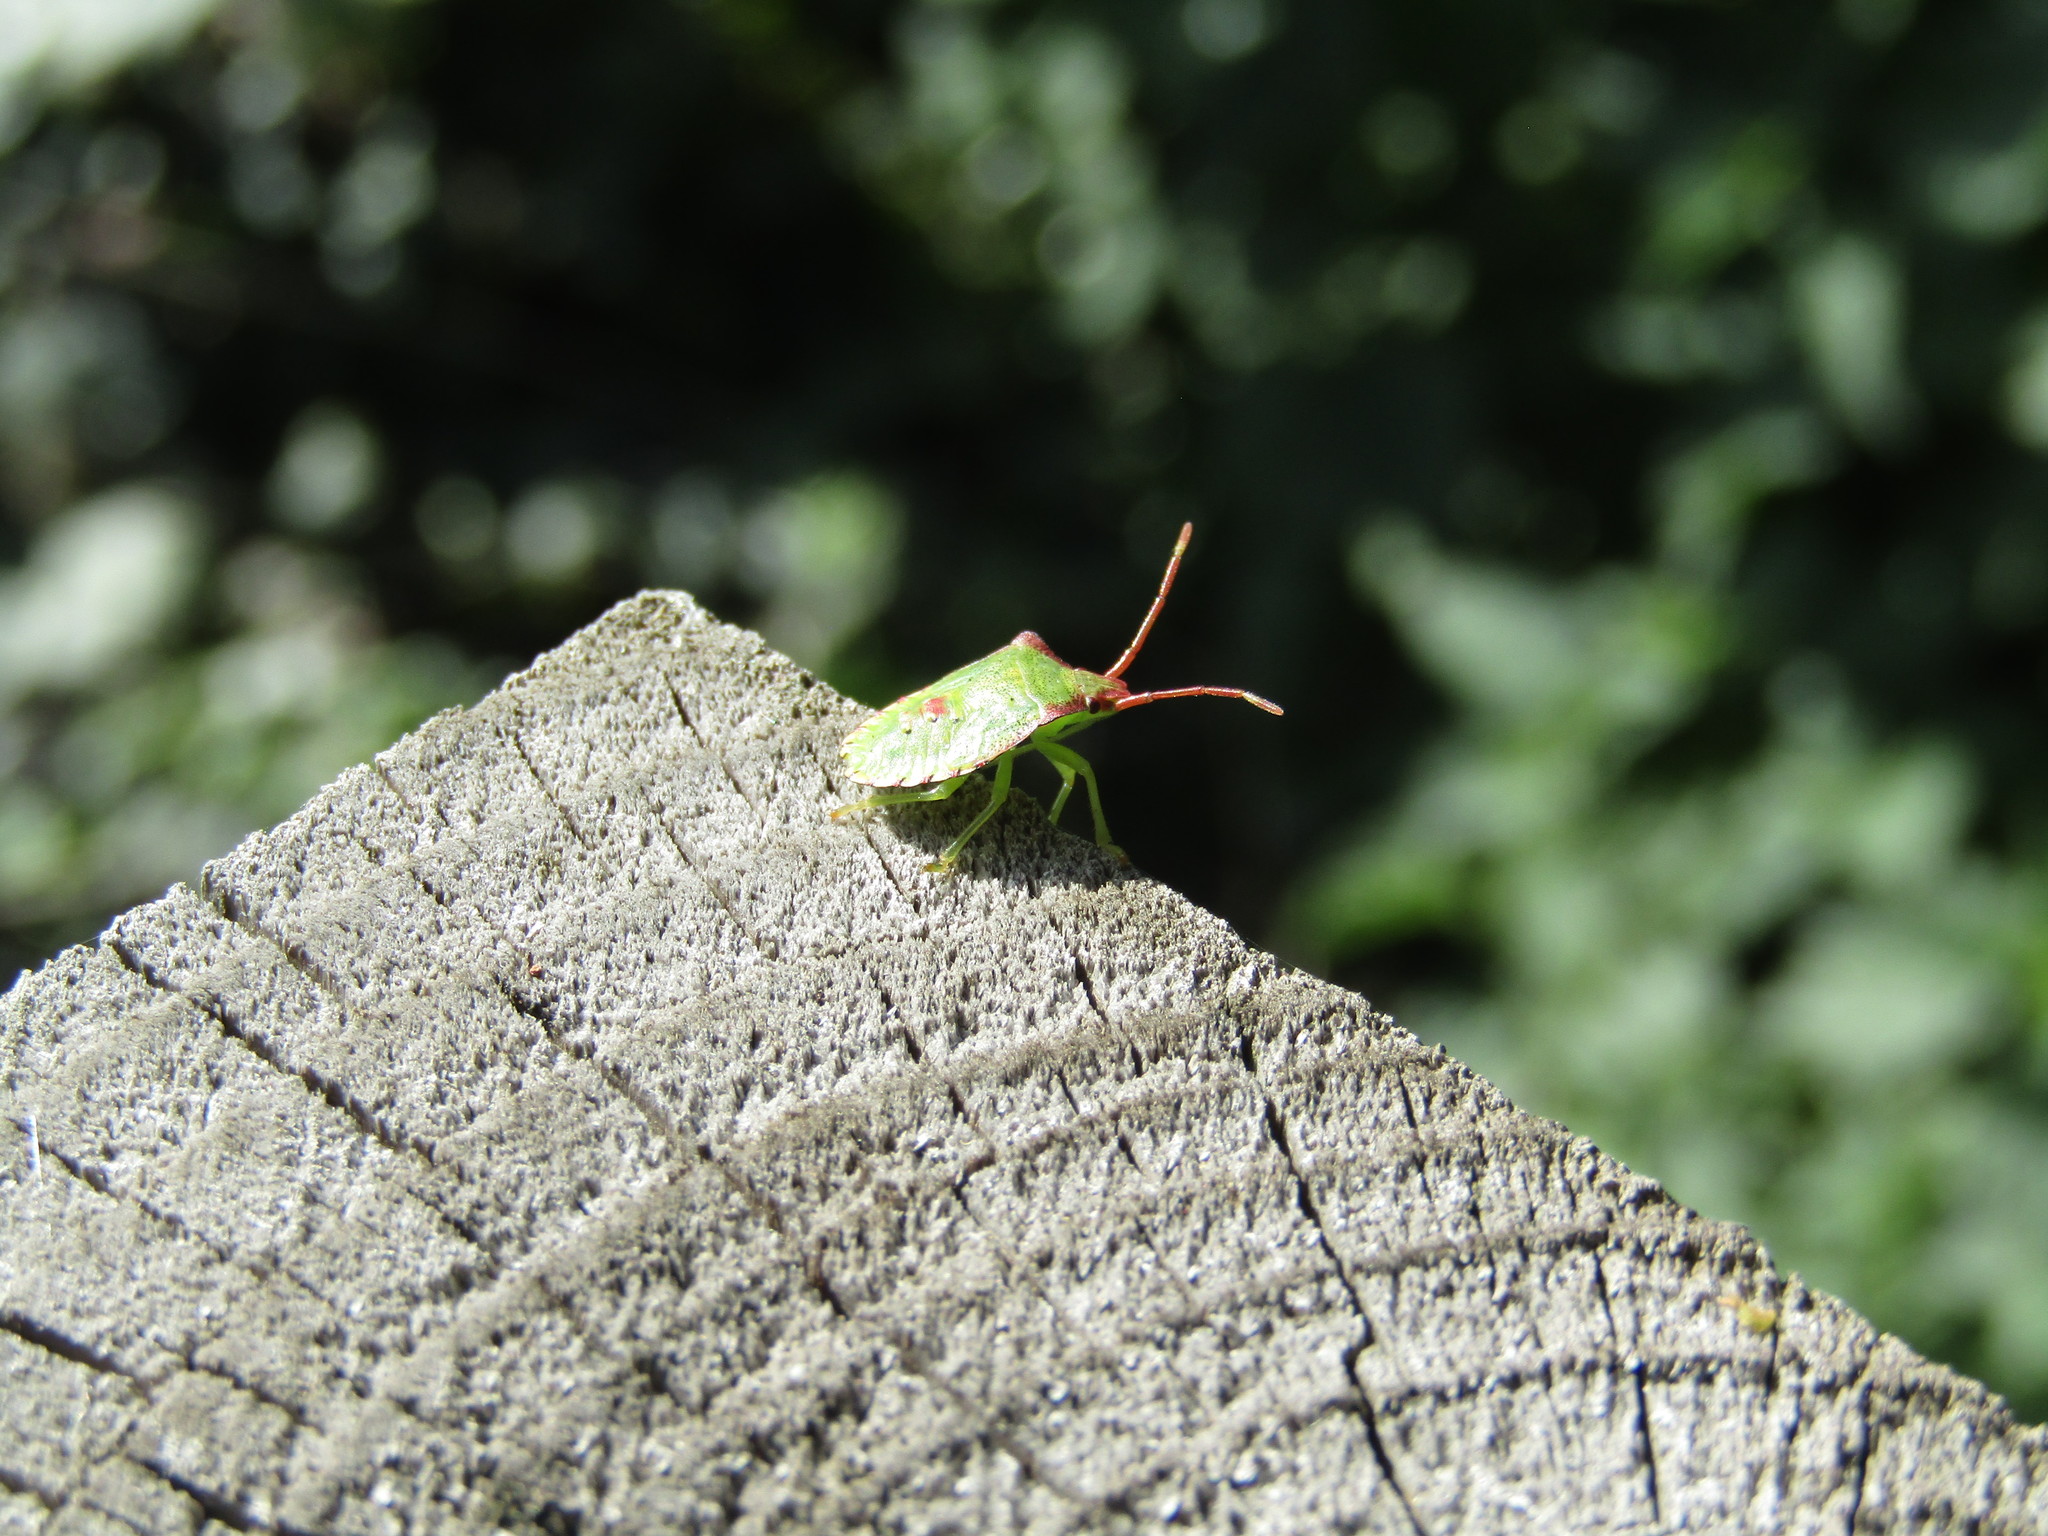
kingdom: Animalia
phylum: Arthropoda
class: Insecta
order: Hemiptera
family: Acanthosomatidae
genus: Acanthosoma
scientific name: Acanthosoma haemorrhoidale
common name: Hawthorn shieldbug
